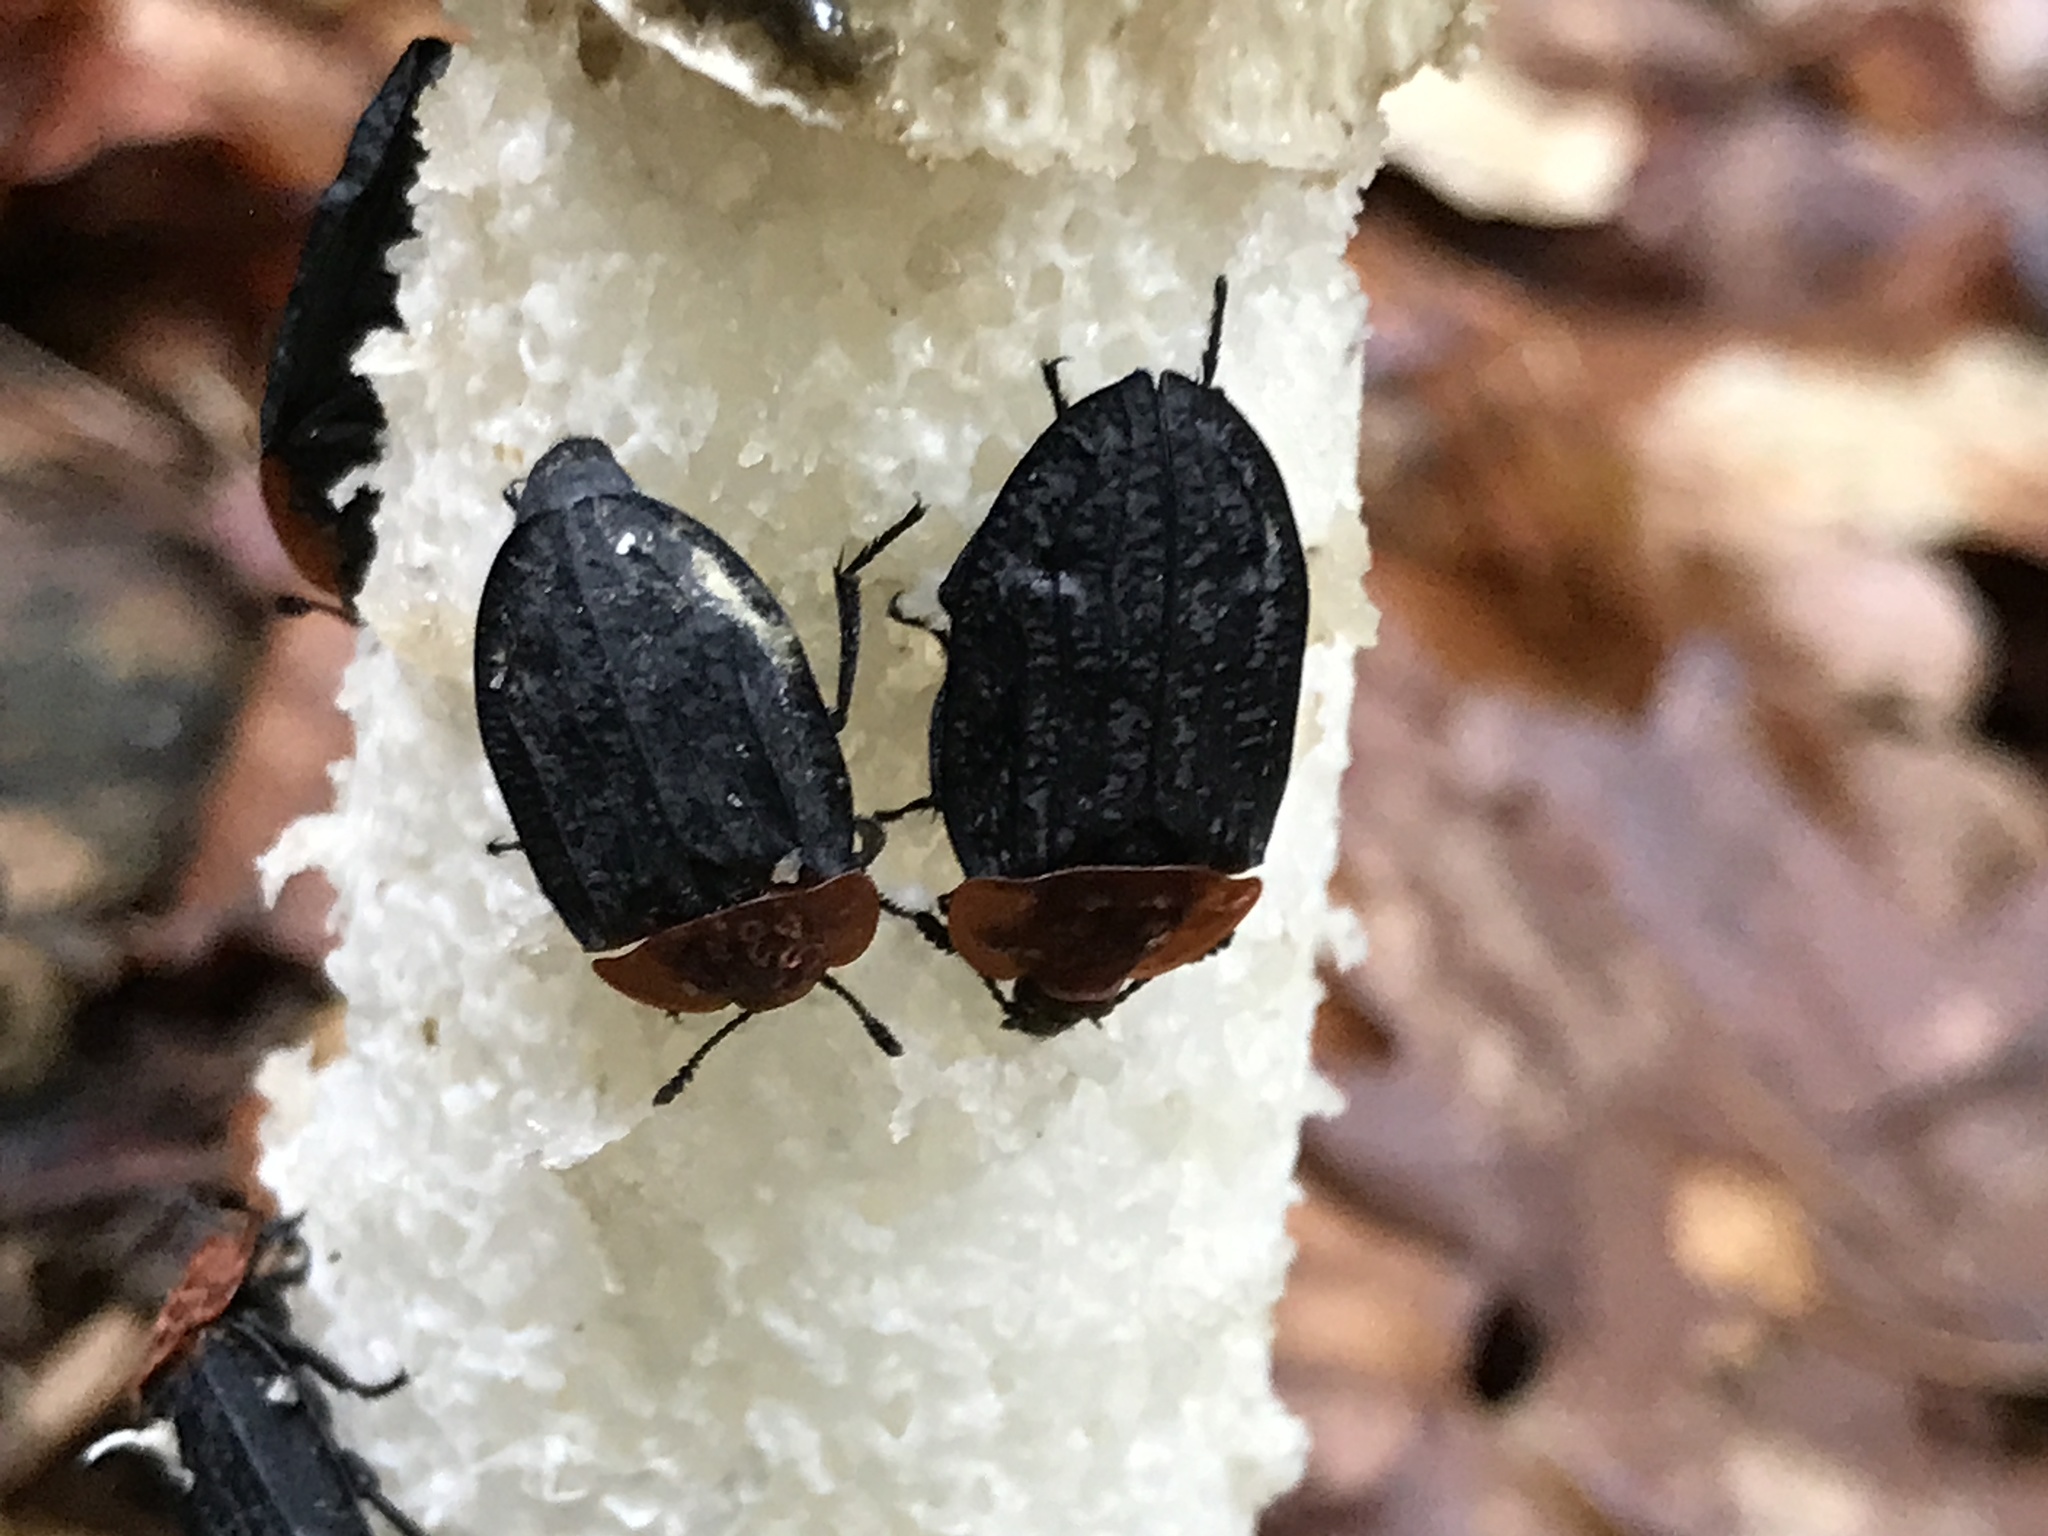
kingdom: Animalia
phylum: Arthropoda
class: Insecta
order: Coleoptera
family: Staphylinidae
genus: Oiceoptoma
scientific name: Oiceoptoma thoracicum
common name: Red-breasted carrion beetle
